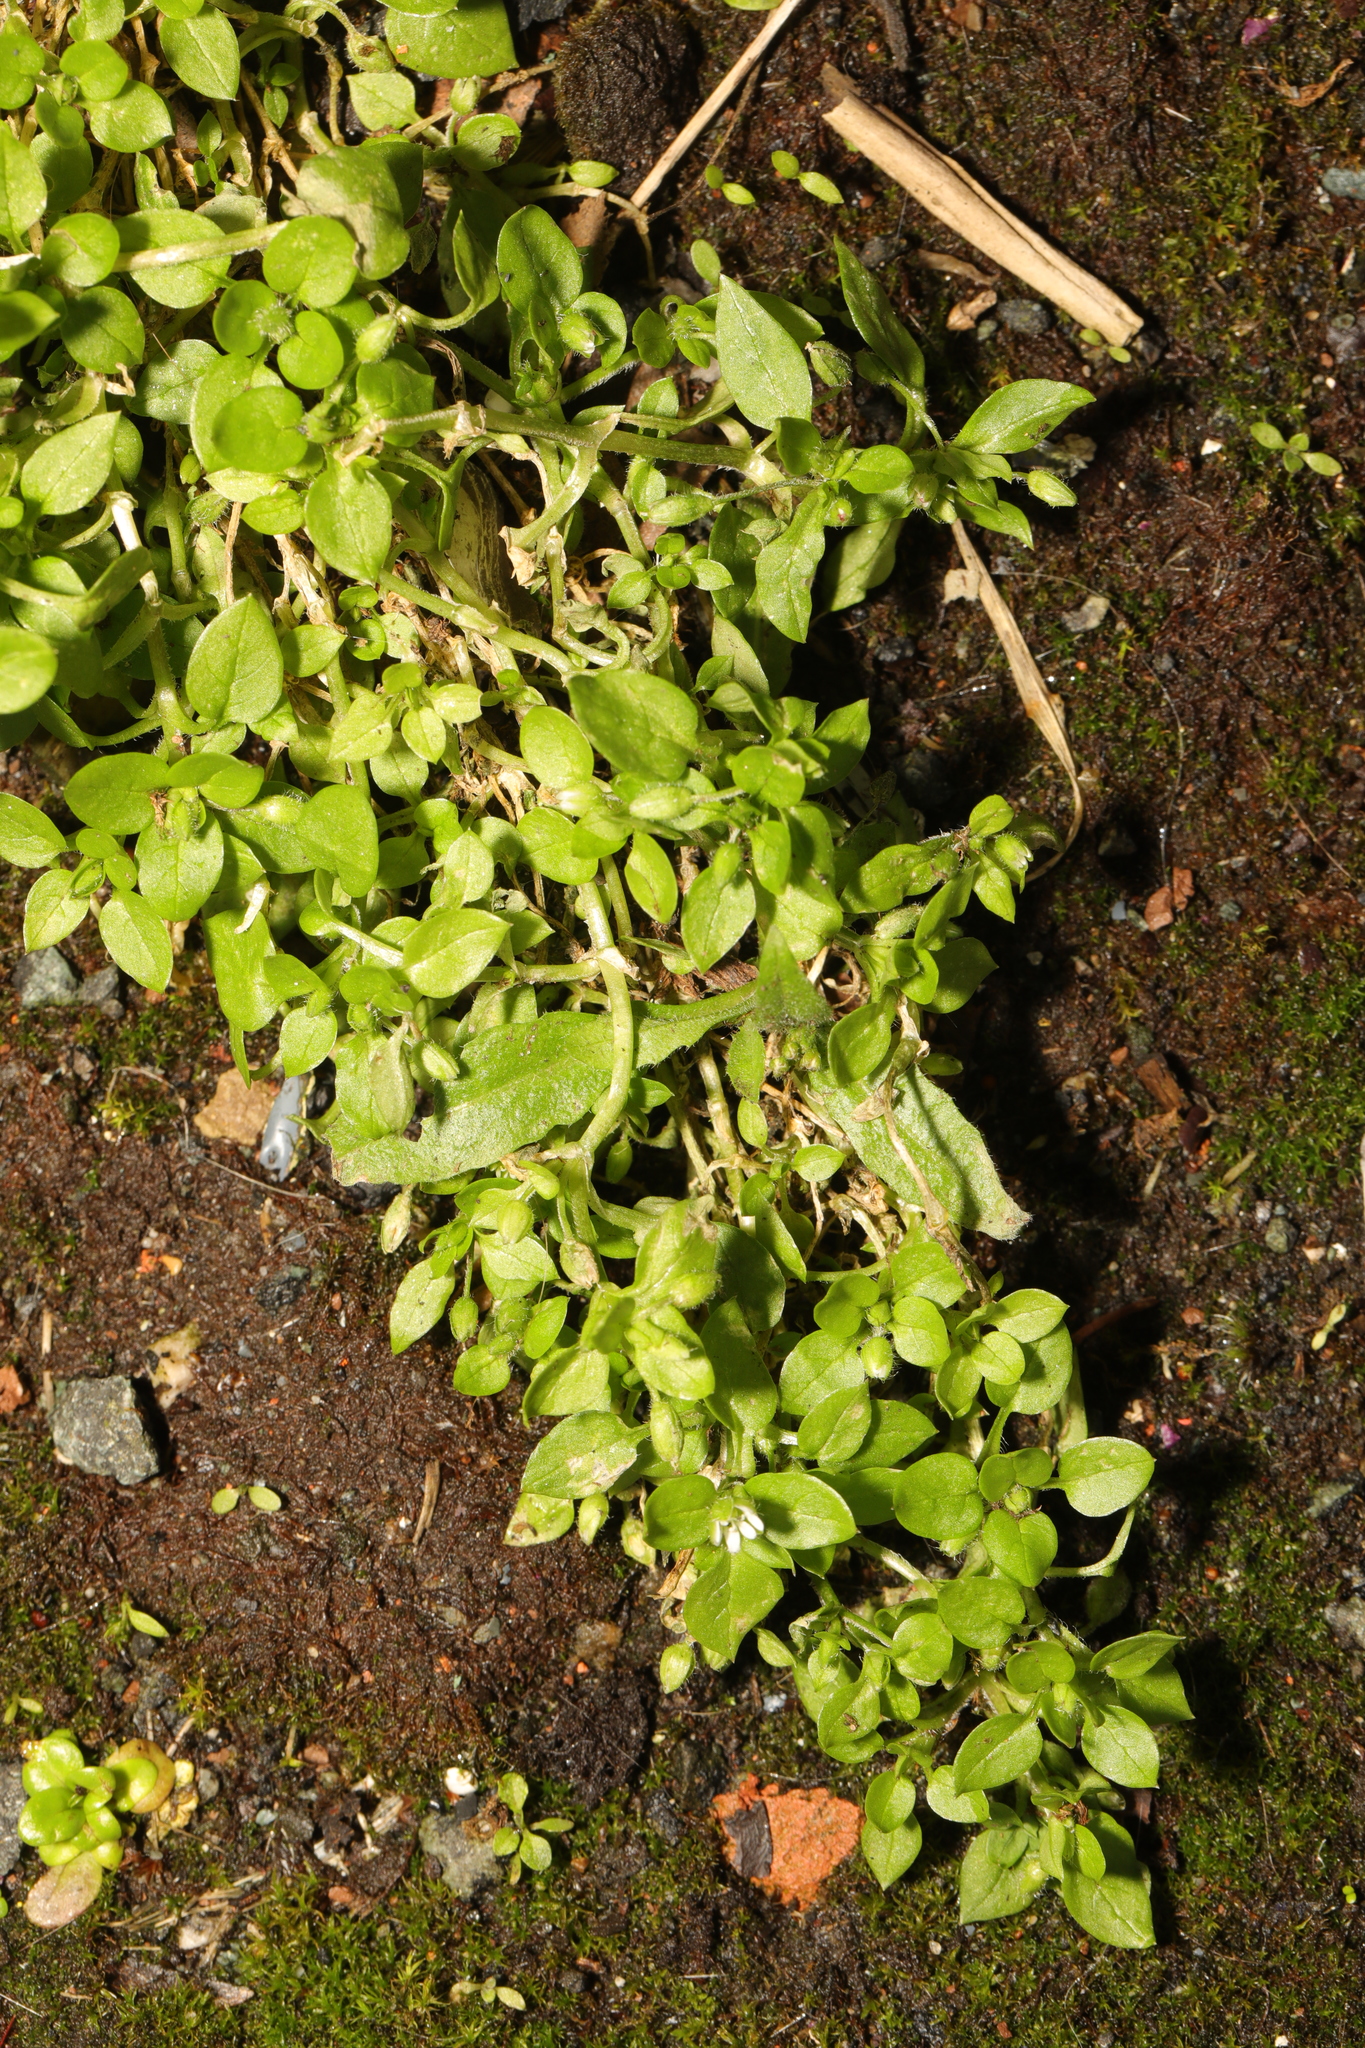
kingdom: Plantae
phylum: Tracheophyta
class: Magnoliopsida
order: Caryophyllales
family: Caryophyllaceae
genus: Stellaria
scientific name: Stellaria media
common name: Common chickweed
